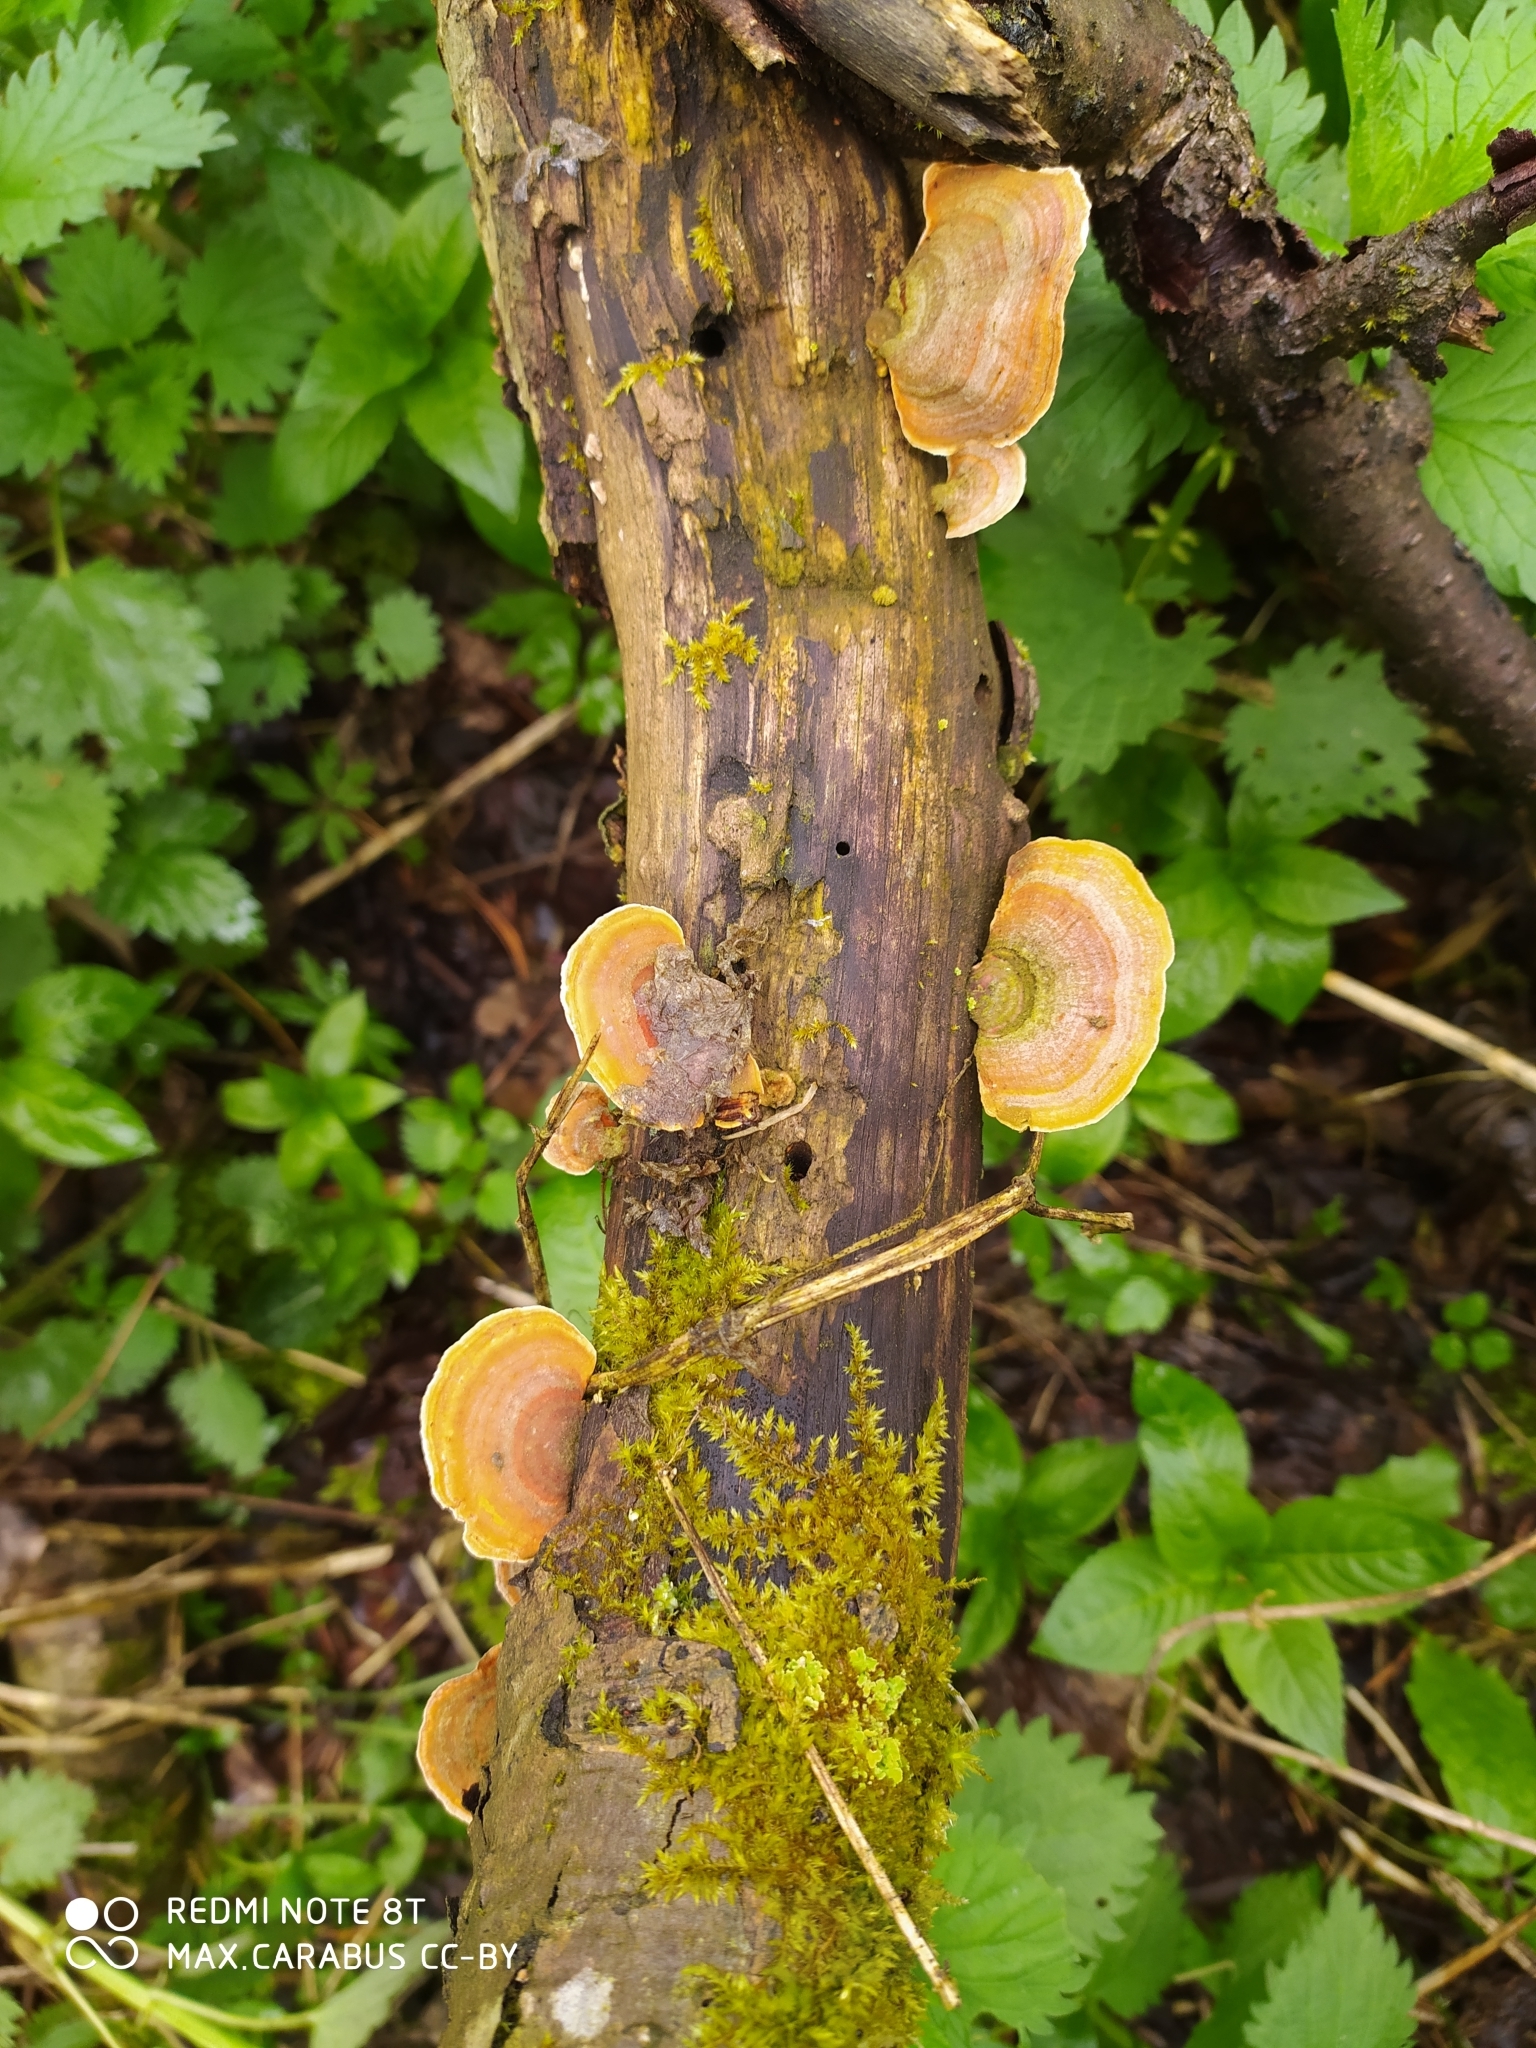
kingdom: Fungi
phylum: Basidiomycota
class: Agaricomycetes
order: Russulales
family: Stereaceae
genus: Stereum
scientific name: Stereum subtomentosum
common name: Yellowing curtain crust
